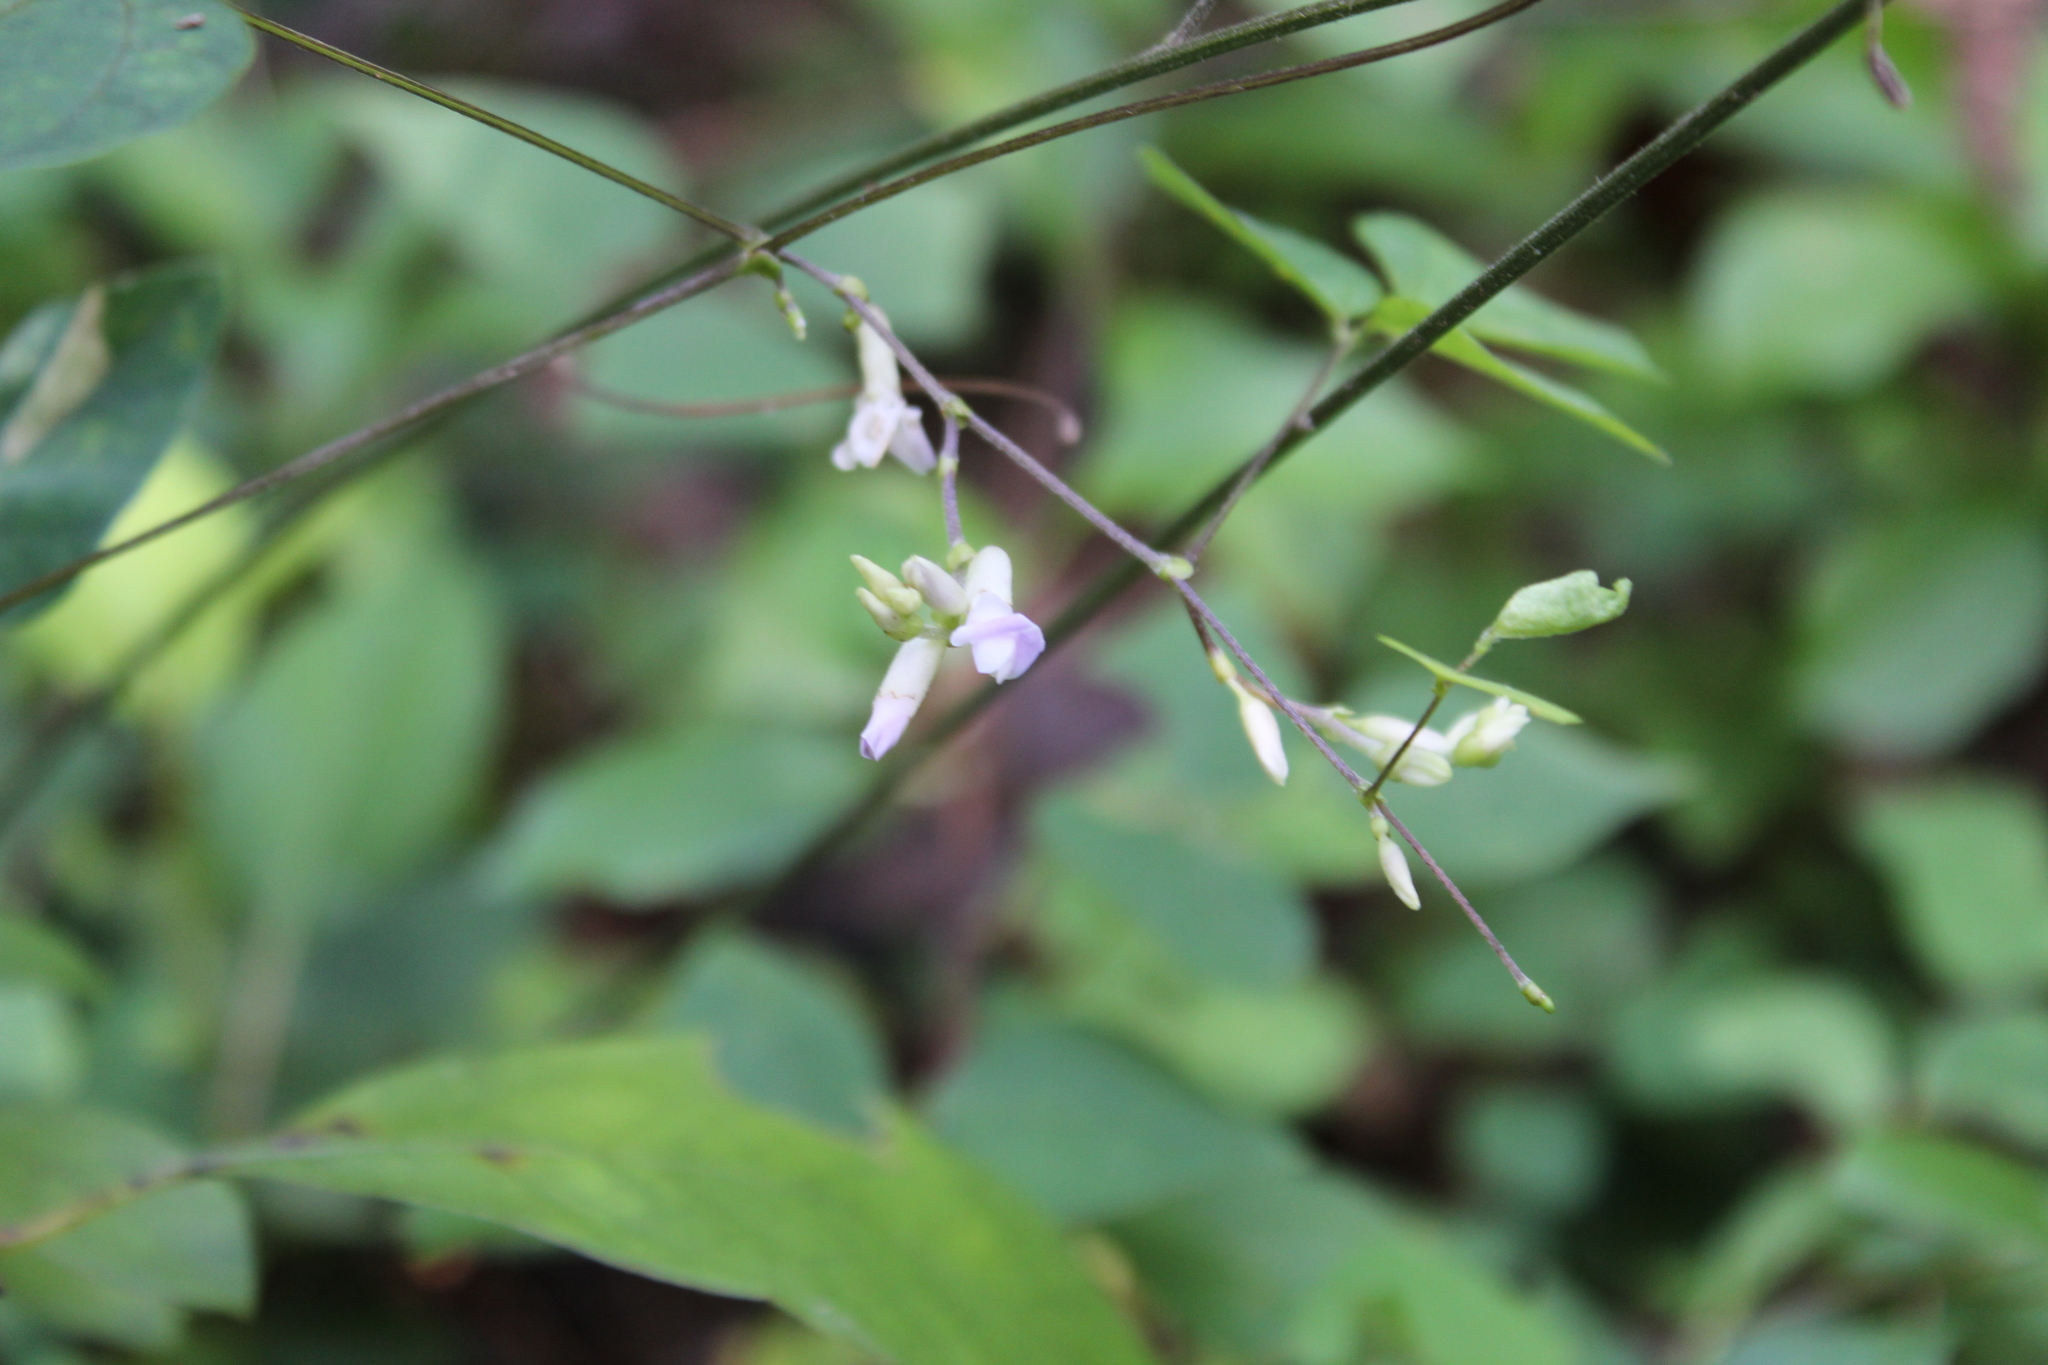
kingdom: Plantae
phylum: Tracheophyta
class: Magnoliopsida
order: Fabales
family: Fabaceae
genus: Amphicarpaea
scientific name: Amphicarpaea bracteata
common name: American hog peanut
